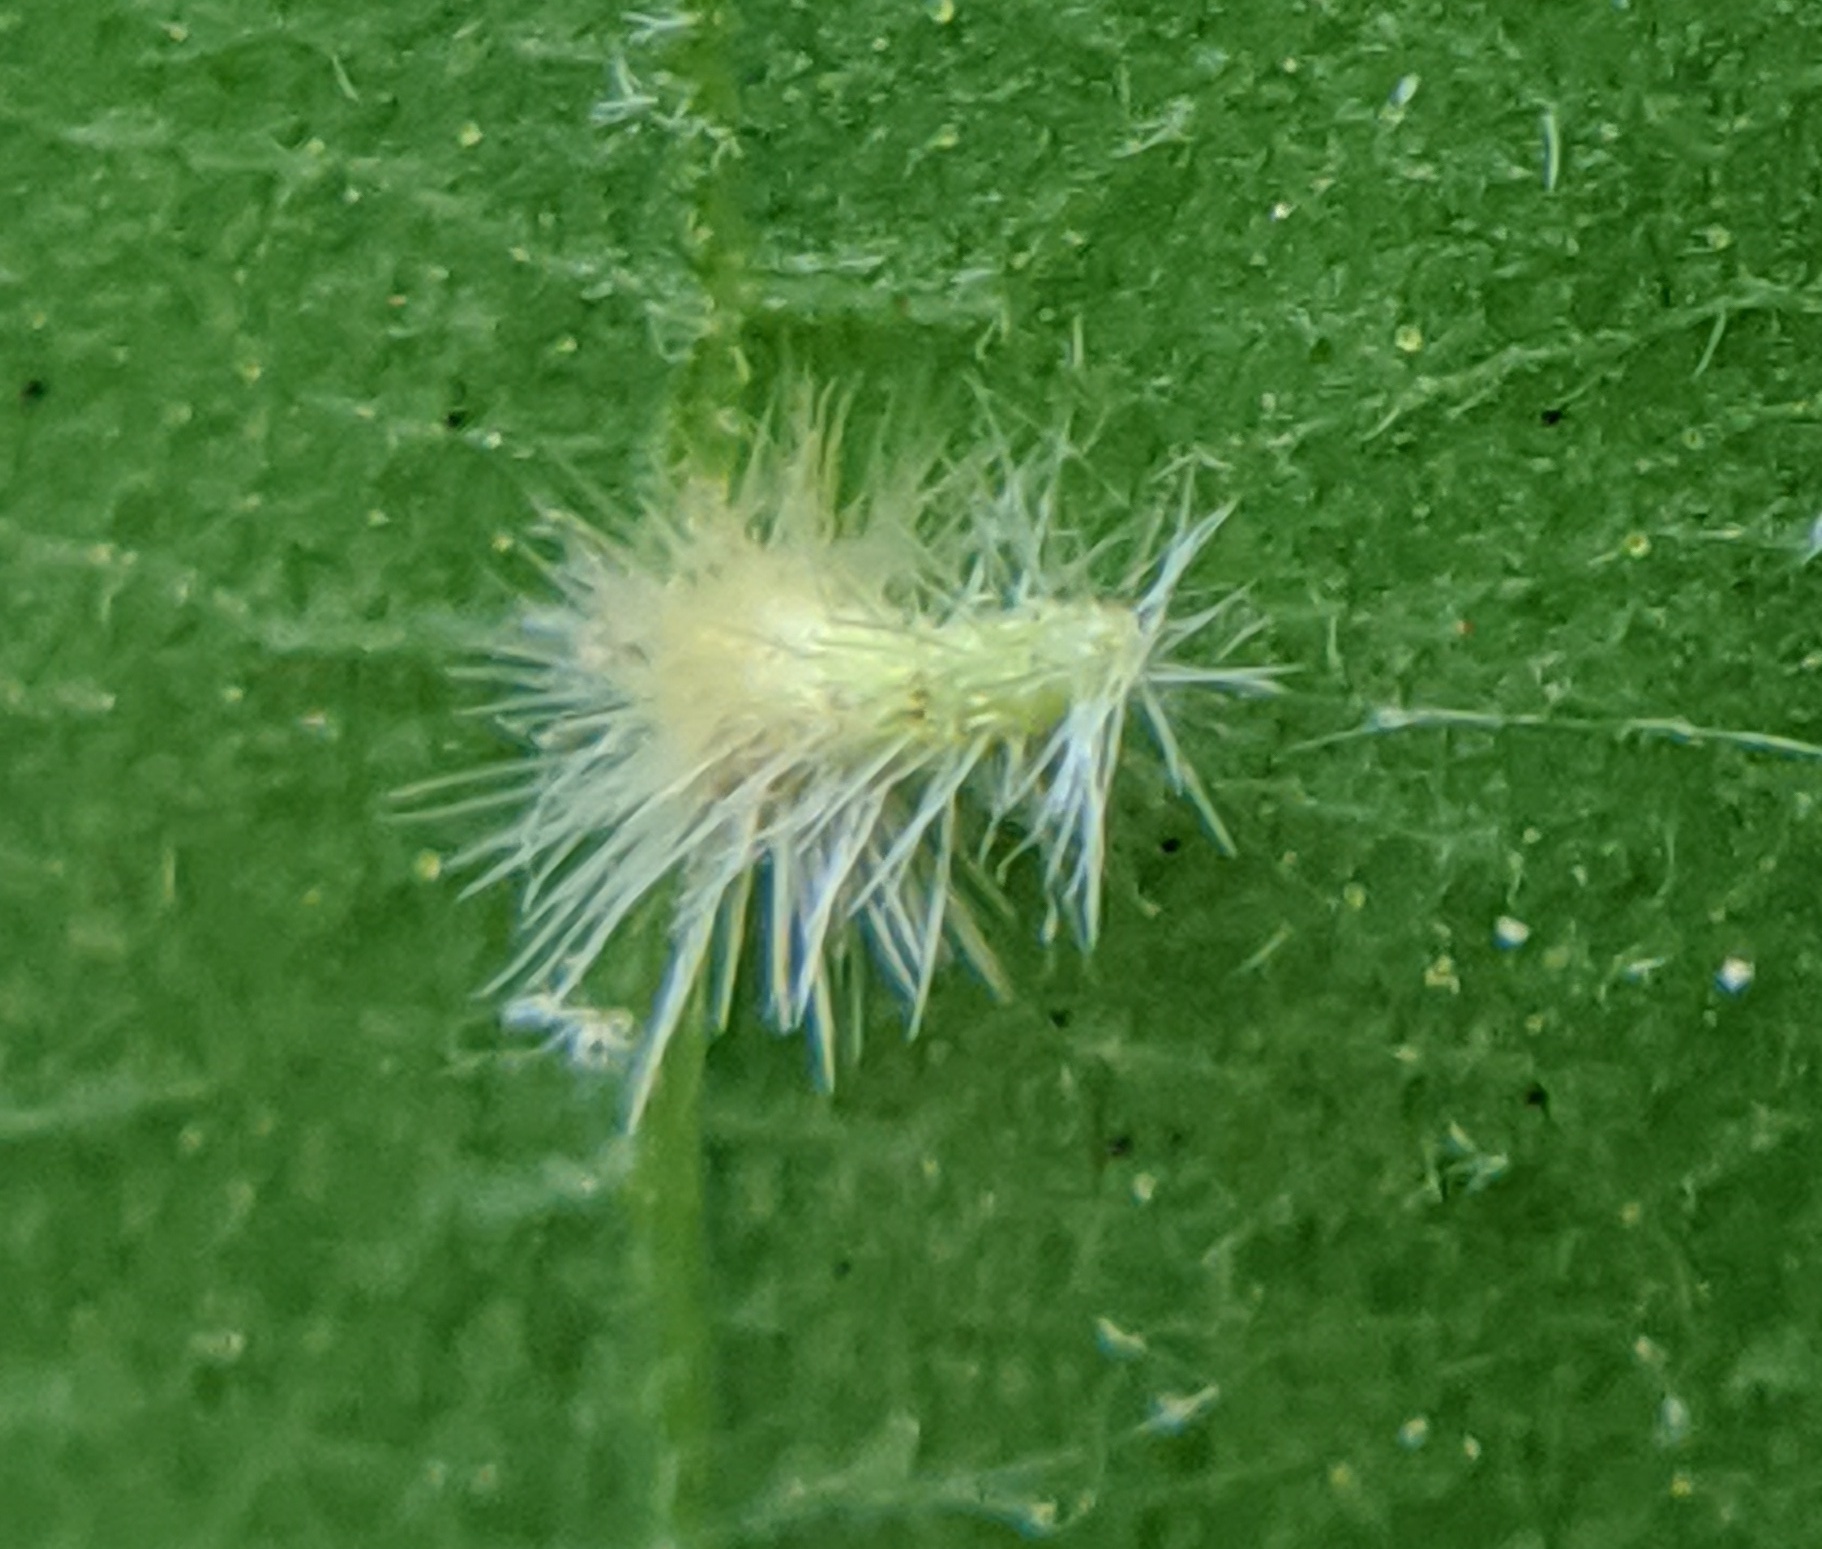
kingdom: Animalia
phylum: Arthropoda
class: Insecta
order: Diptera
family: Cecidomyiidae
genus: Caryomyia
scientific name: Caryomyia albipilosa
